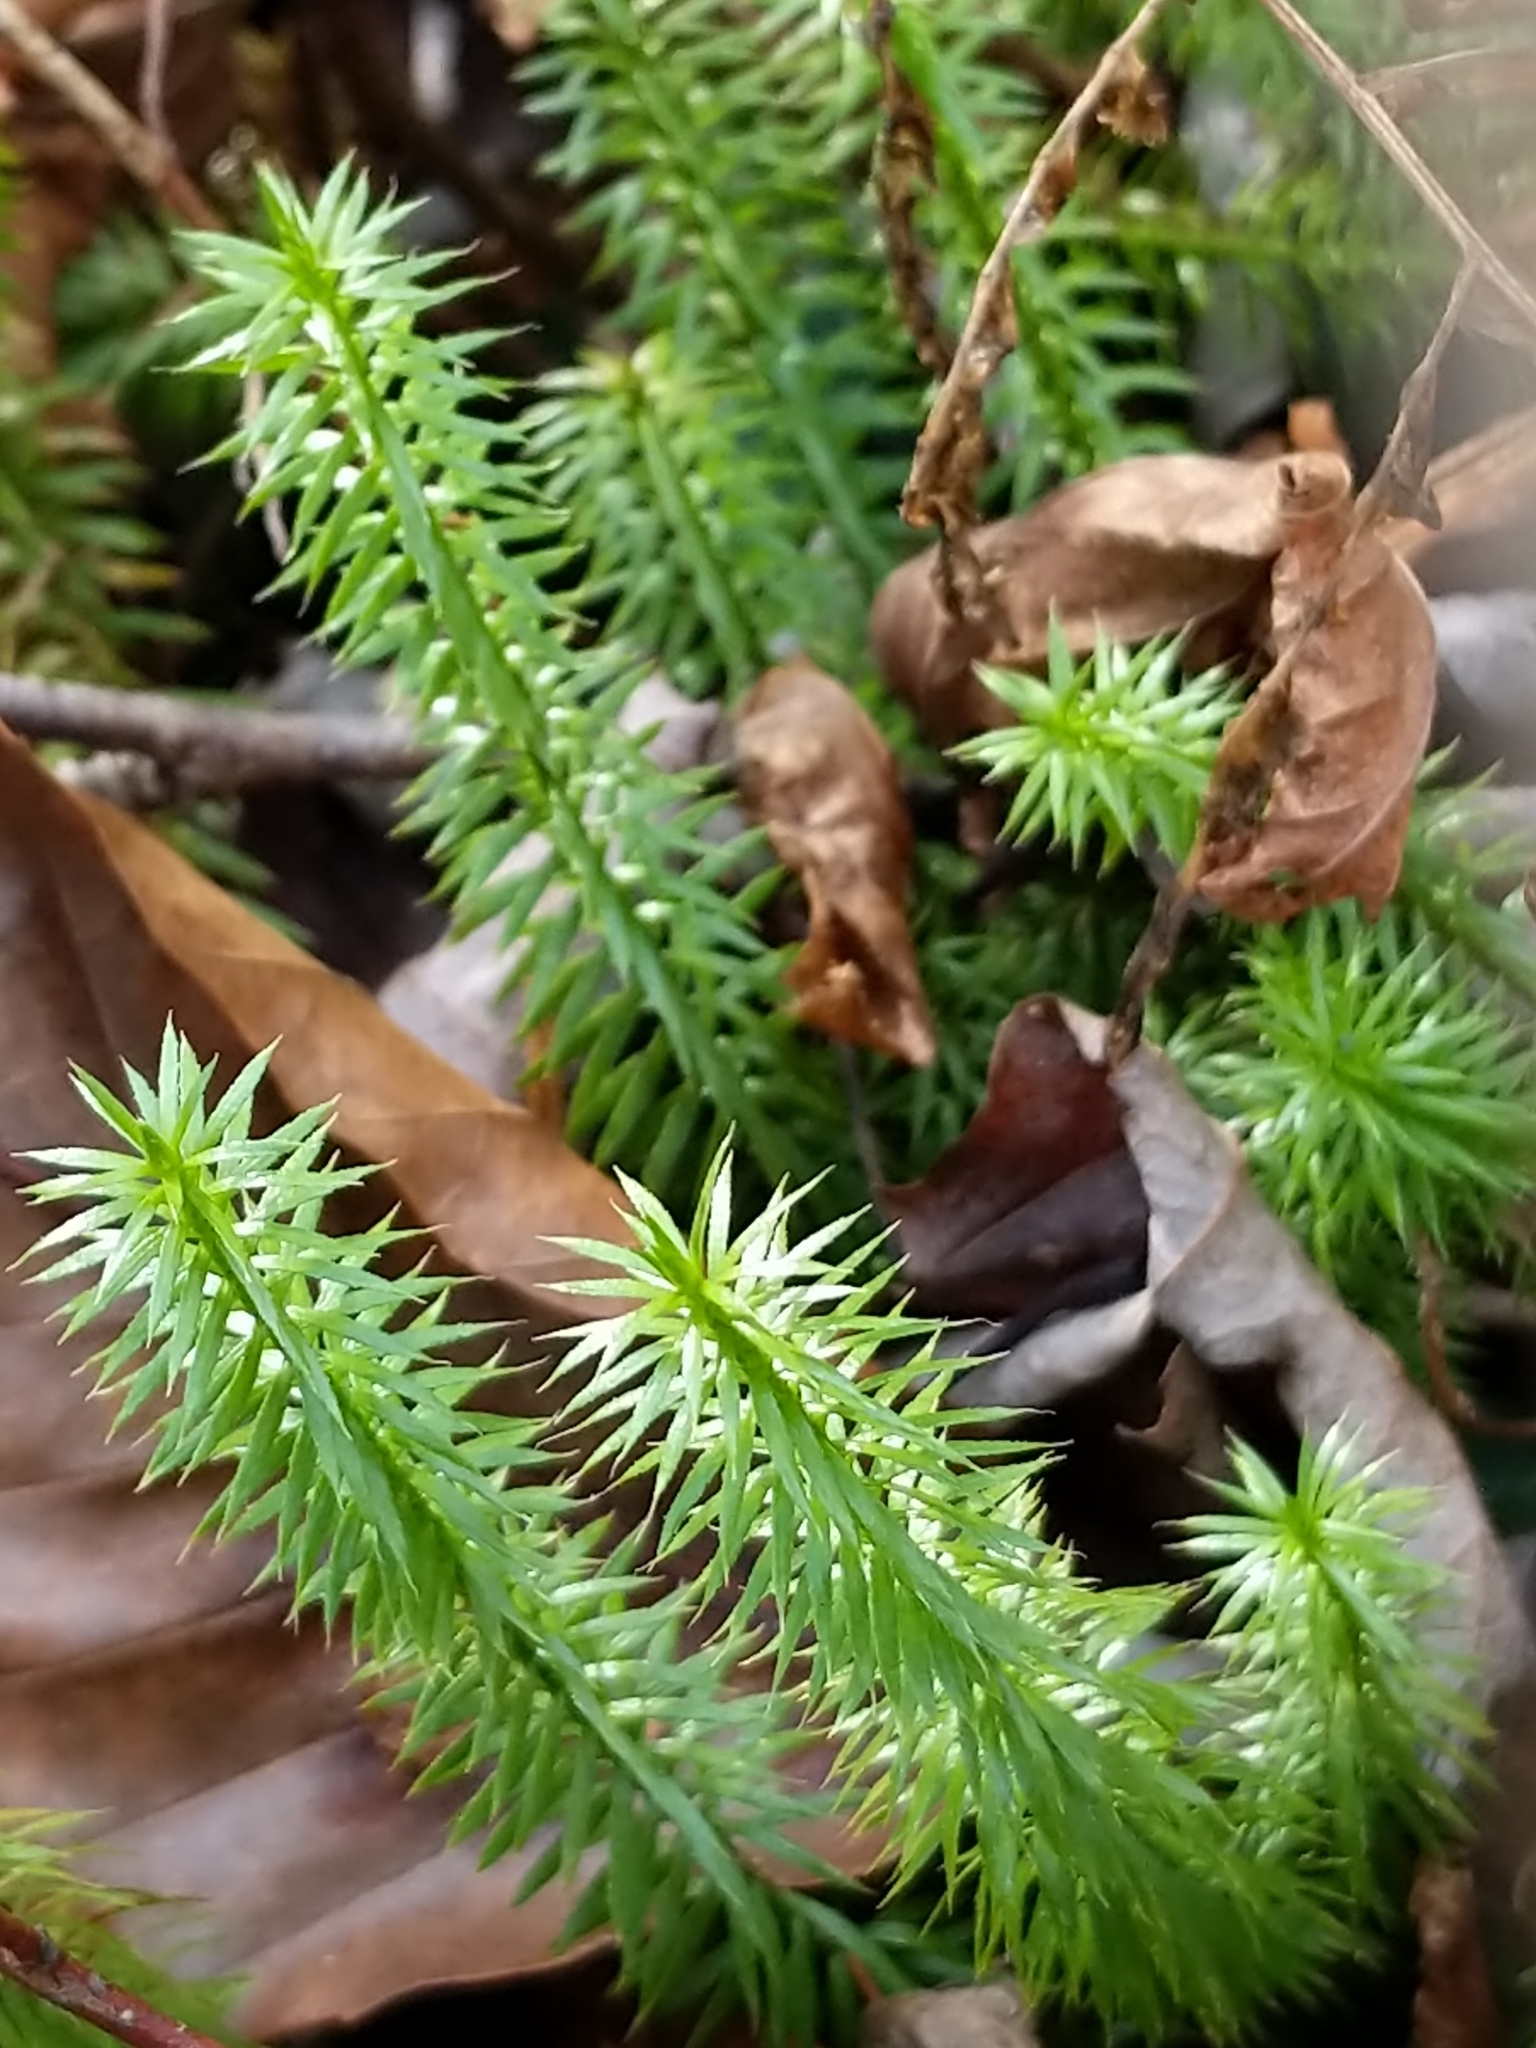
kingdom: Plantae
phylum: Tracheophyta
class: Lycopodiopsida
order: Lycopodiales
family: Lycopodiaceae
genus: Spinulum
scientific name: Spinulum annotinum
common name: Interrupted club-moss
